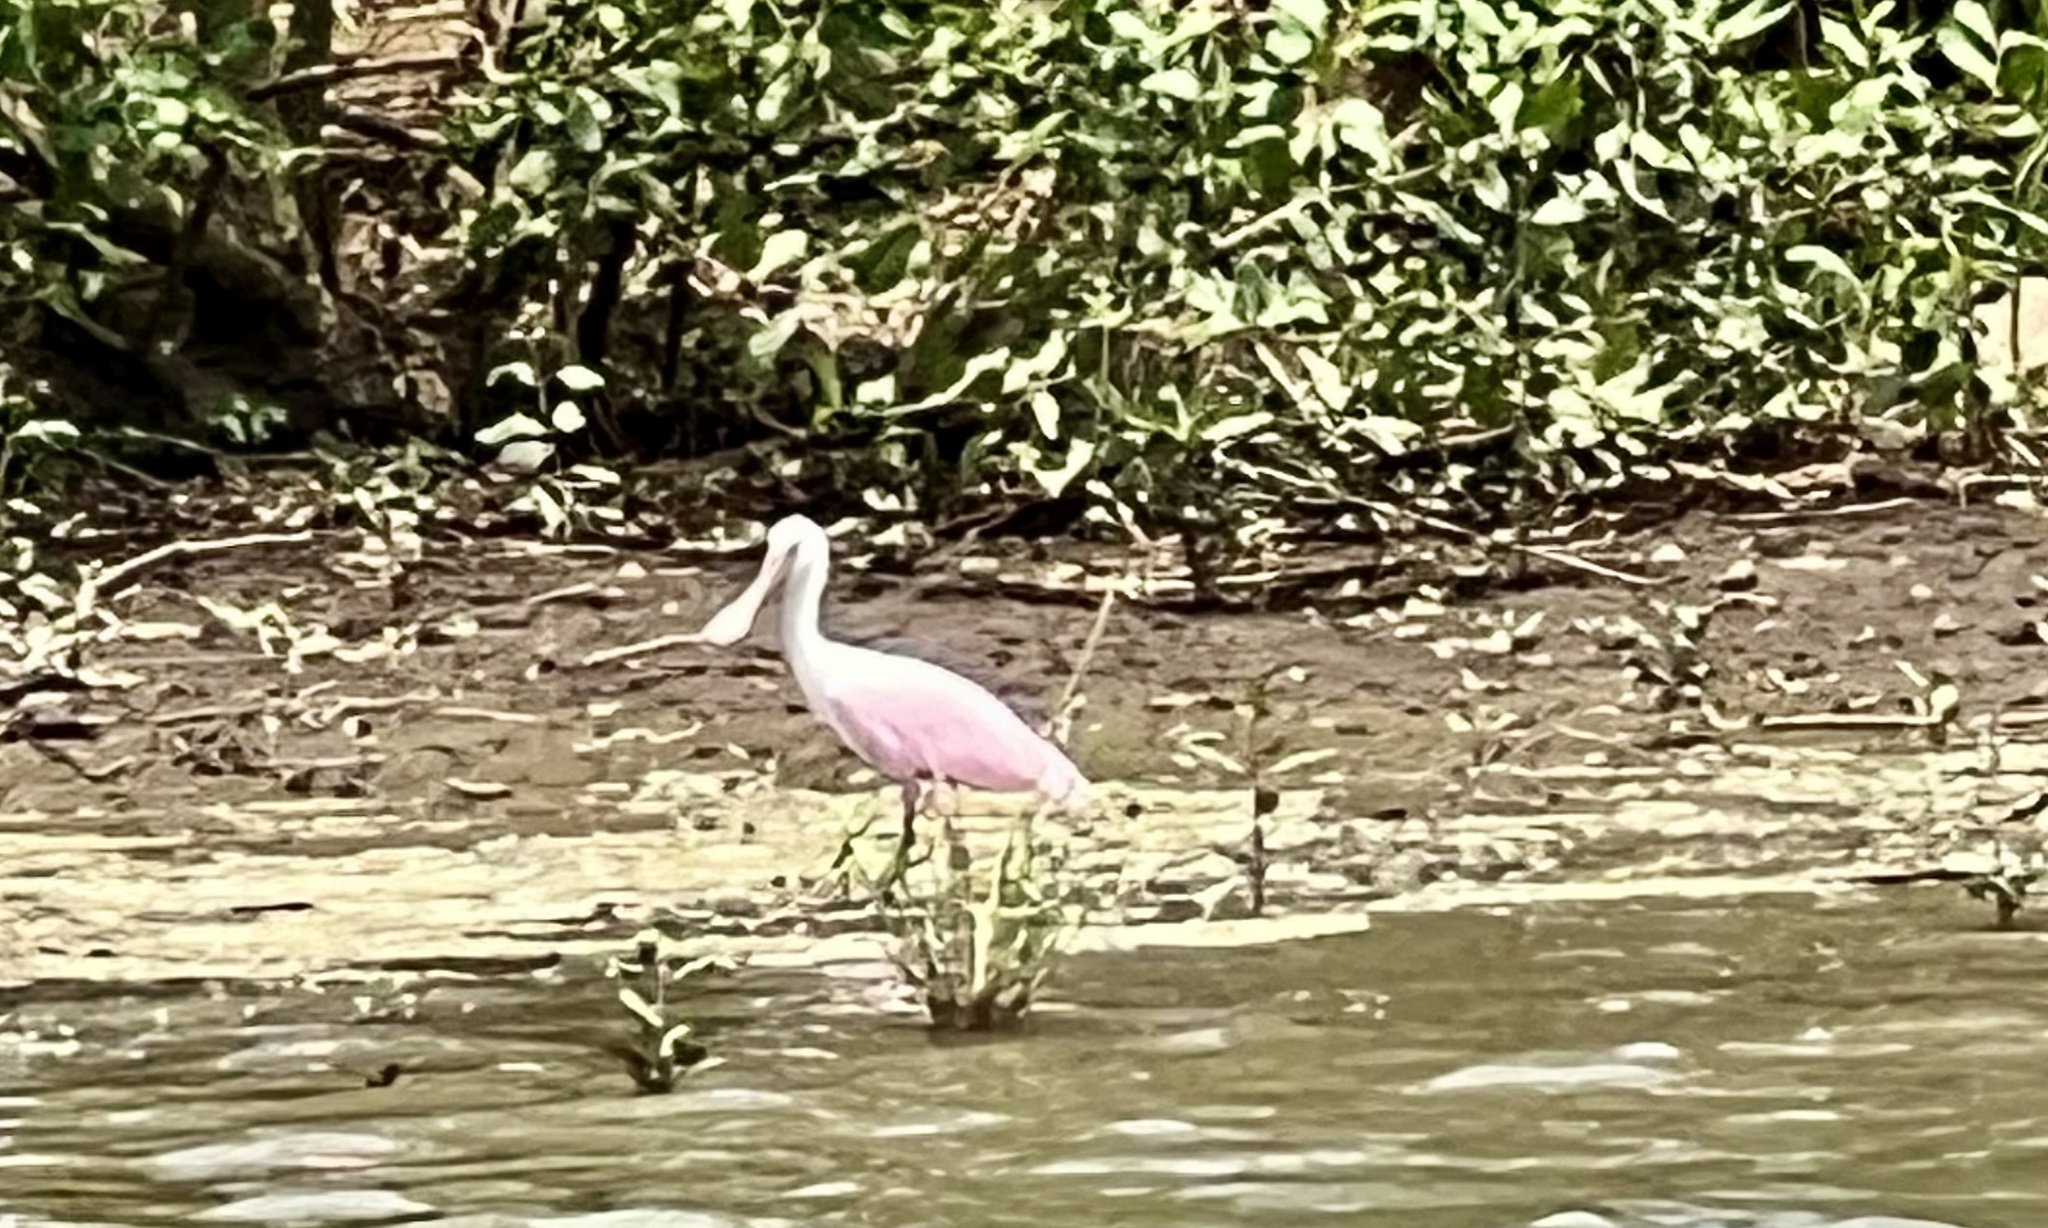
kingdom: Animalia
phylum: Chordata
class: Aves
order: Pelecaniformes
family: Threskiornithidae
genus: Platalea
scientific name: Platalea ajaja
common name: Roseate spoonbill
